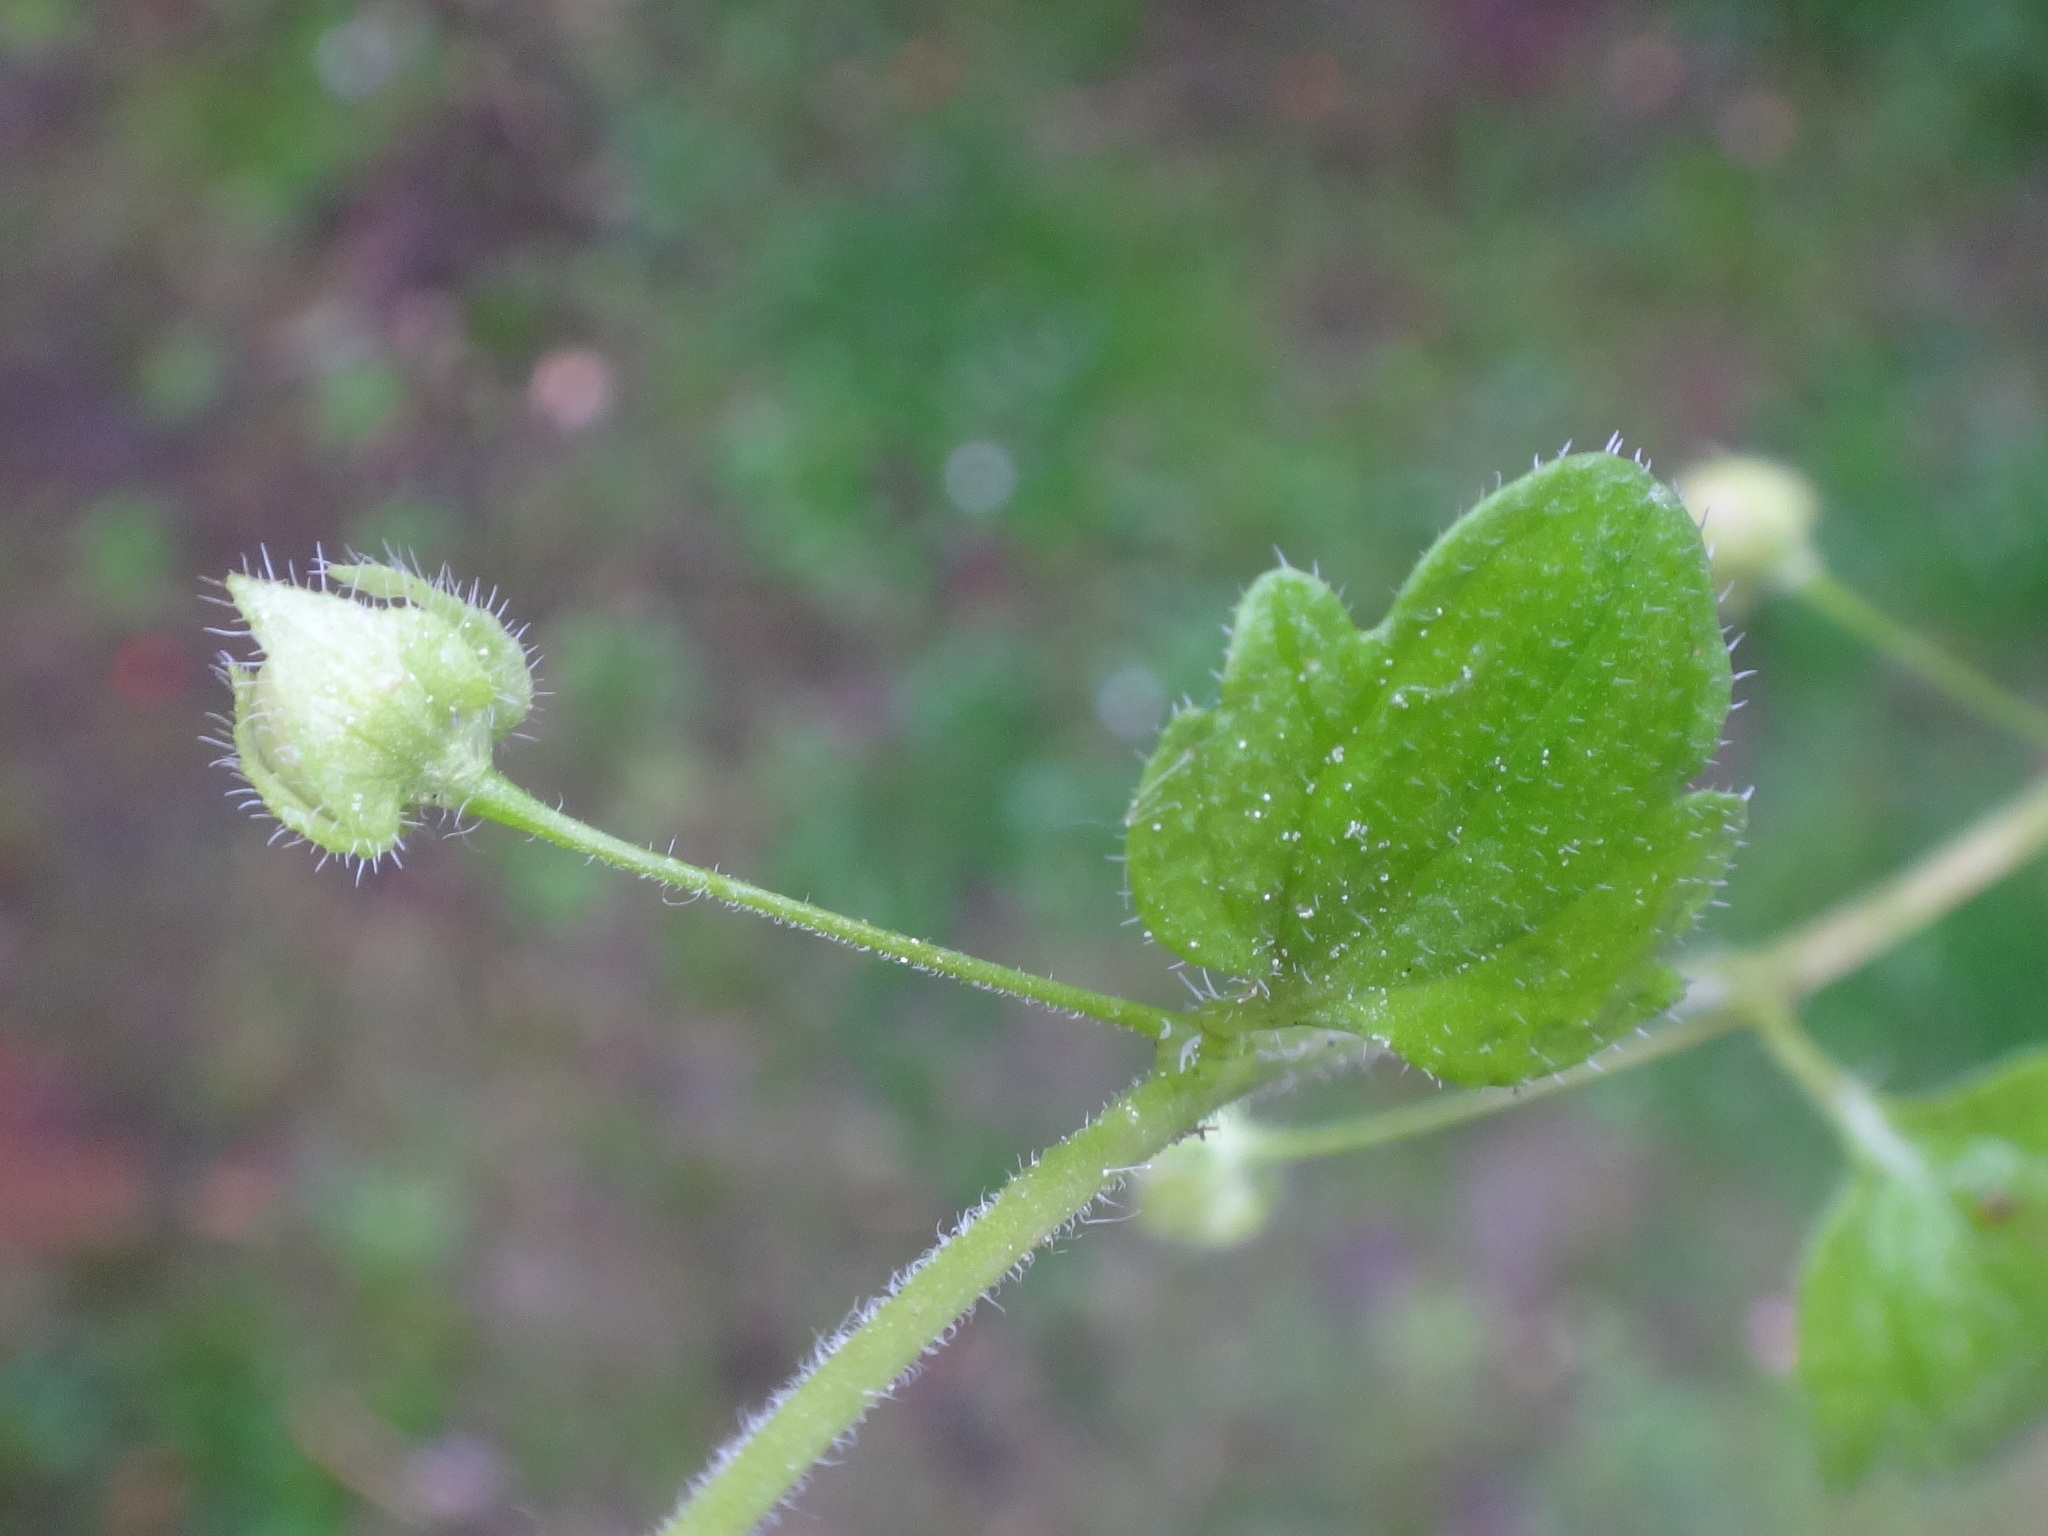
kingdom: Plantae
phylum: Tracheophyta
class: Magnoliopsida
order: Lamiales
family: Plantaginaceae
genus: Veronica
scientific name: Veronica sublobata
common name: False ivy-leaved speedwell
